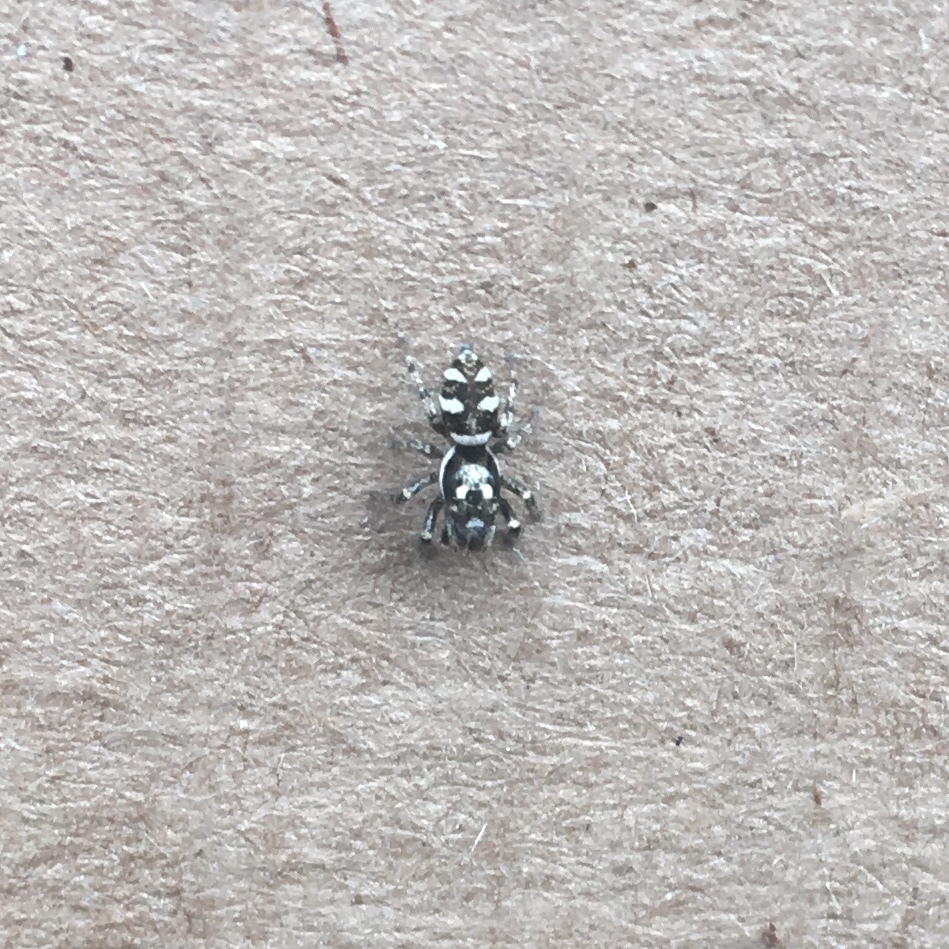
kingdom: Animalia
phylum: Arthropoda
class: Arachnida
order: Araneae
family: Salticidae
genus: Salticus
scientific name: Salticus scenicus
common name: Zebra jumper
